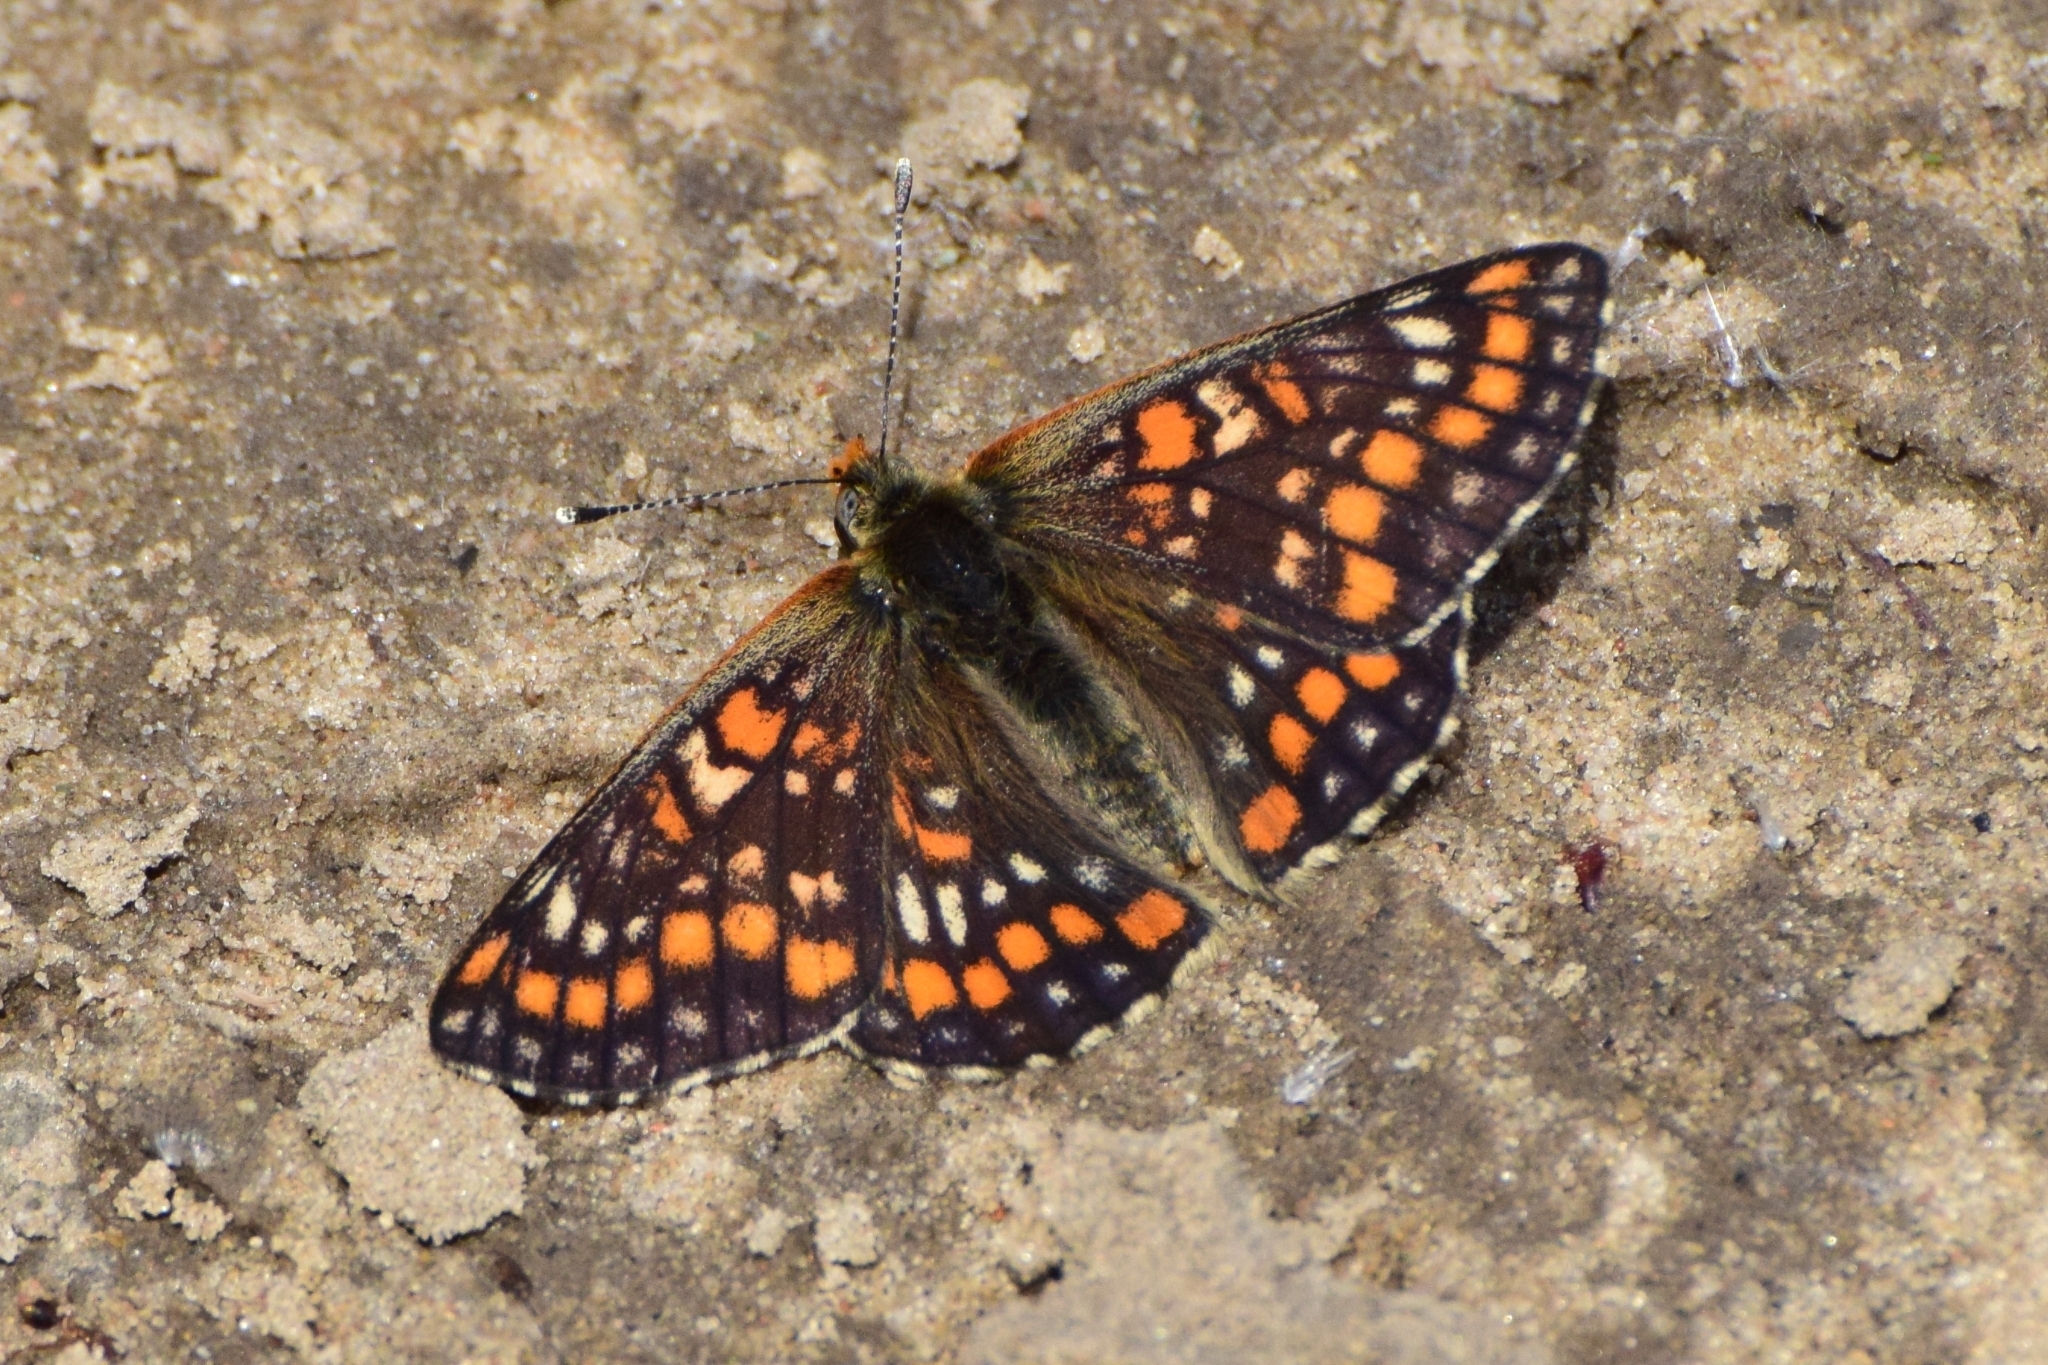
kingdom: Animalia
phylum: Arthropoda
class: Insecta
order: Lepidoptera
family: Nymphalidae
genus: Euphydryas
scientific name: Euphydryas maturna
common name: Scarce fritillary
